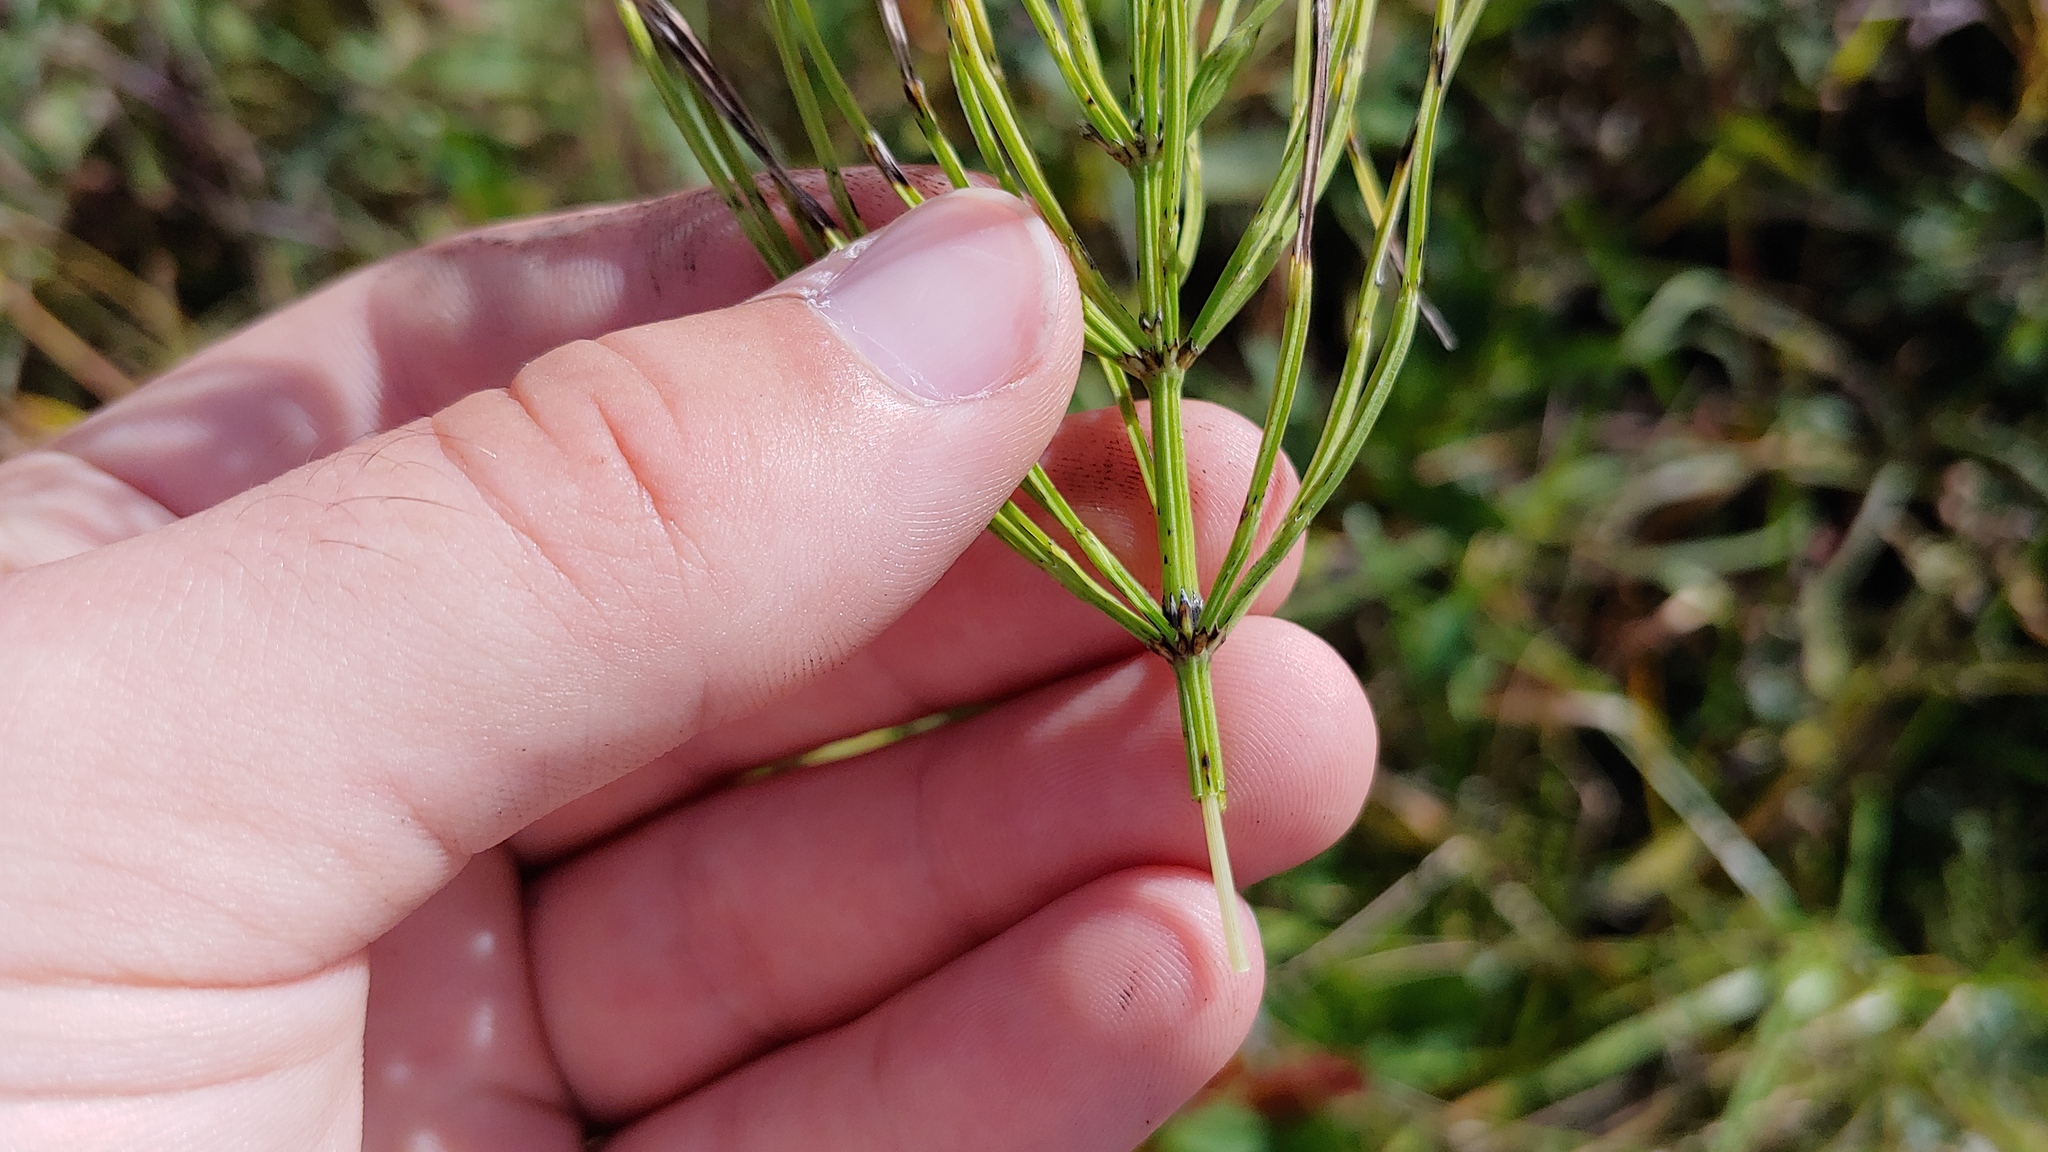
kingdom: Plantae
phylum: Tracheophyta
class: Polypodiopsida
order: Equisetales
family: Equisetaceae
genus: Equisetum
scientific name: Equisetum arvense
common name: Field horsetail
